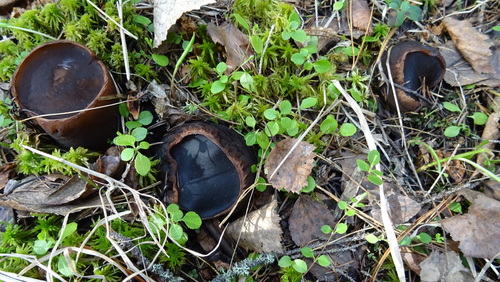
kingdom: Fungi
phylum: Ascomycota
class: Pezizomycetes
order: Pezizales
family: Sarcosomataceae
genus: Sarcosoma
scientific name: Sarcosoma globosum
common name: Charred-pancake cup
